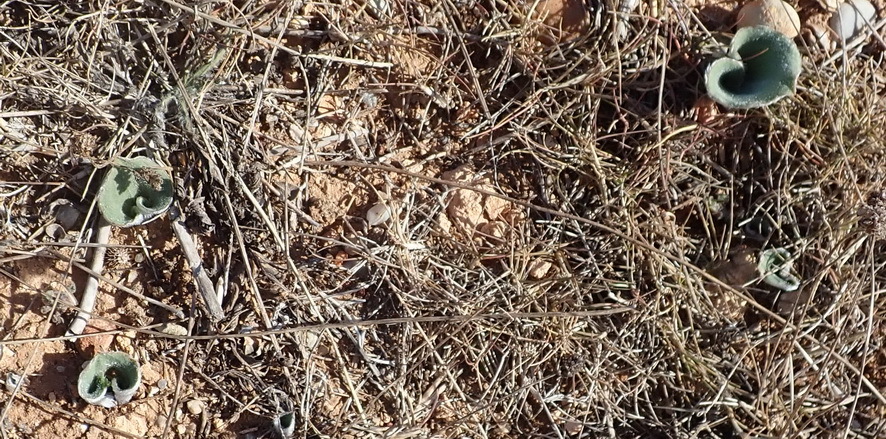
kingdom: Plantae
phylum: Tracheophyta
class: Liliopsida
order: Asparagales
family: Asparagaceae
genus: Eriospermum
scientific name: Eriospermum pubescens
